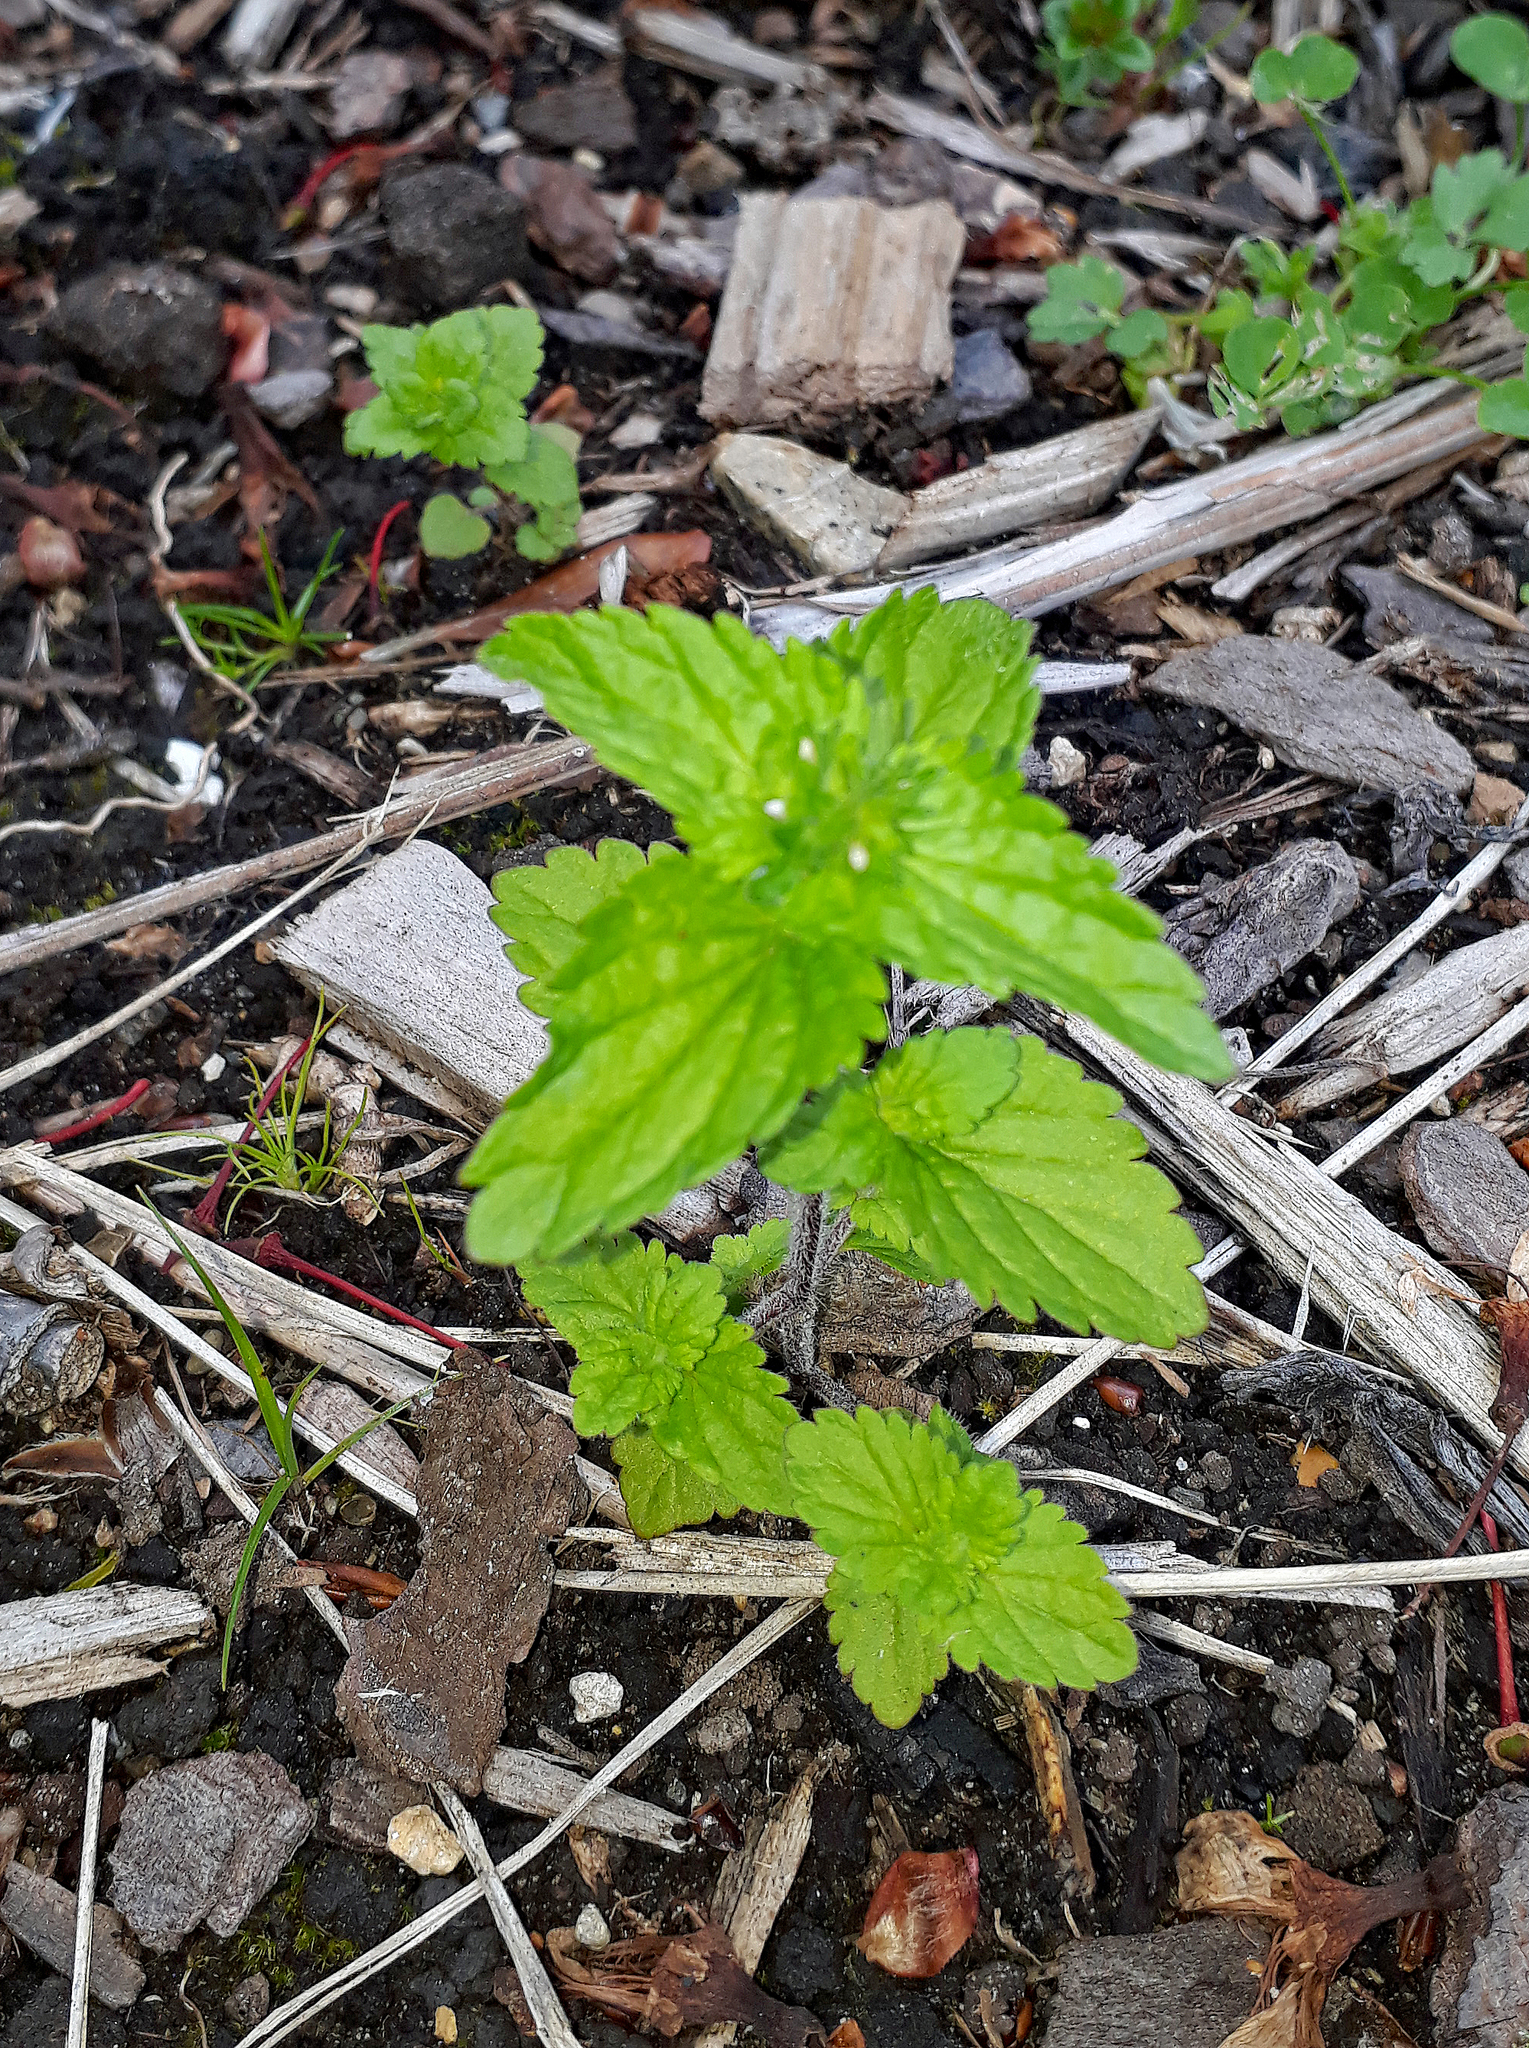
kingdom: Plantae
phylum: Tracheophyta
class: Magnoliopsida
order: Lamiales
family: Plantaginaceae
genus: Veronica
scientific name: Veronica javanica
